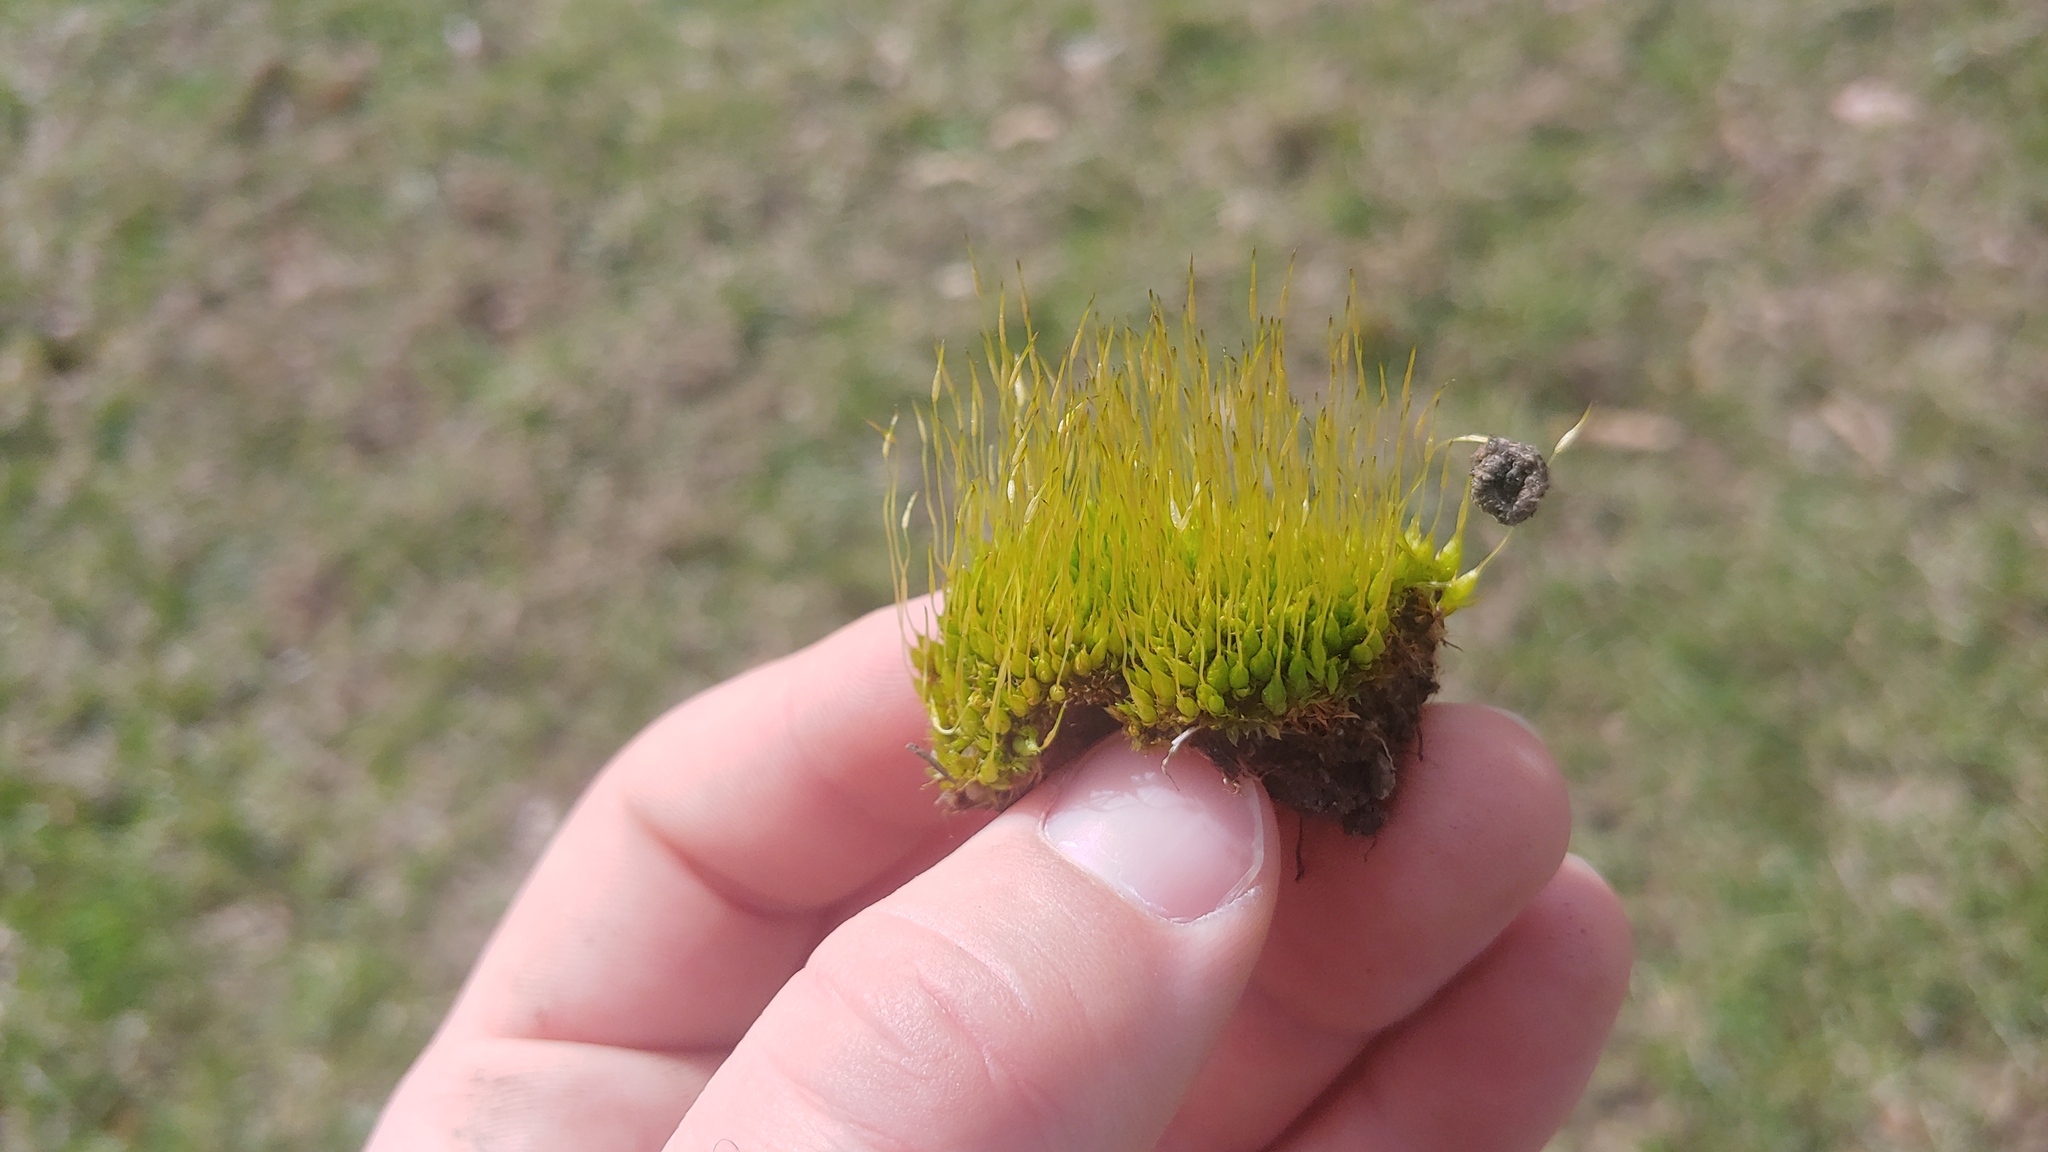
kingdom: Plantae
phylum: Bryophyta
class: Bryopsida
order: Funariales
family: Funariaceae
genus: Funaria
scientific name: Funaria hygrometrica
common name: Common cord moss
